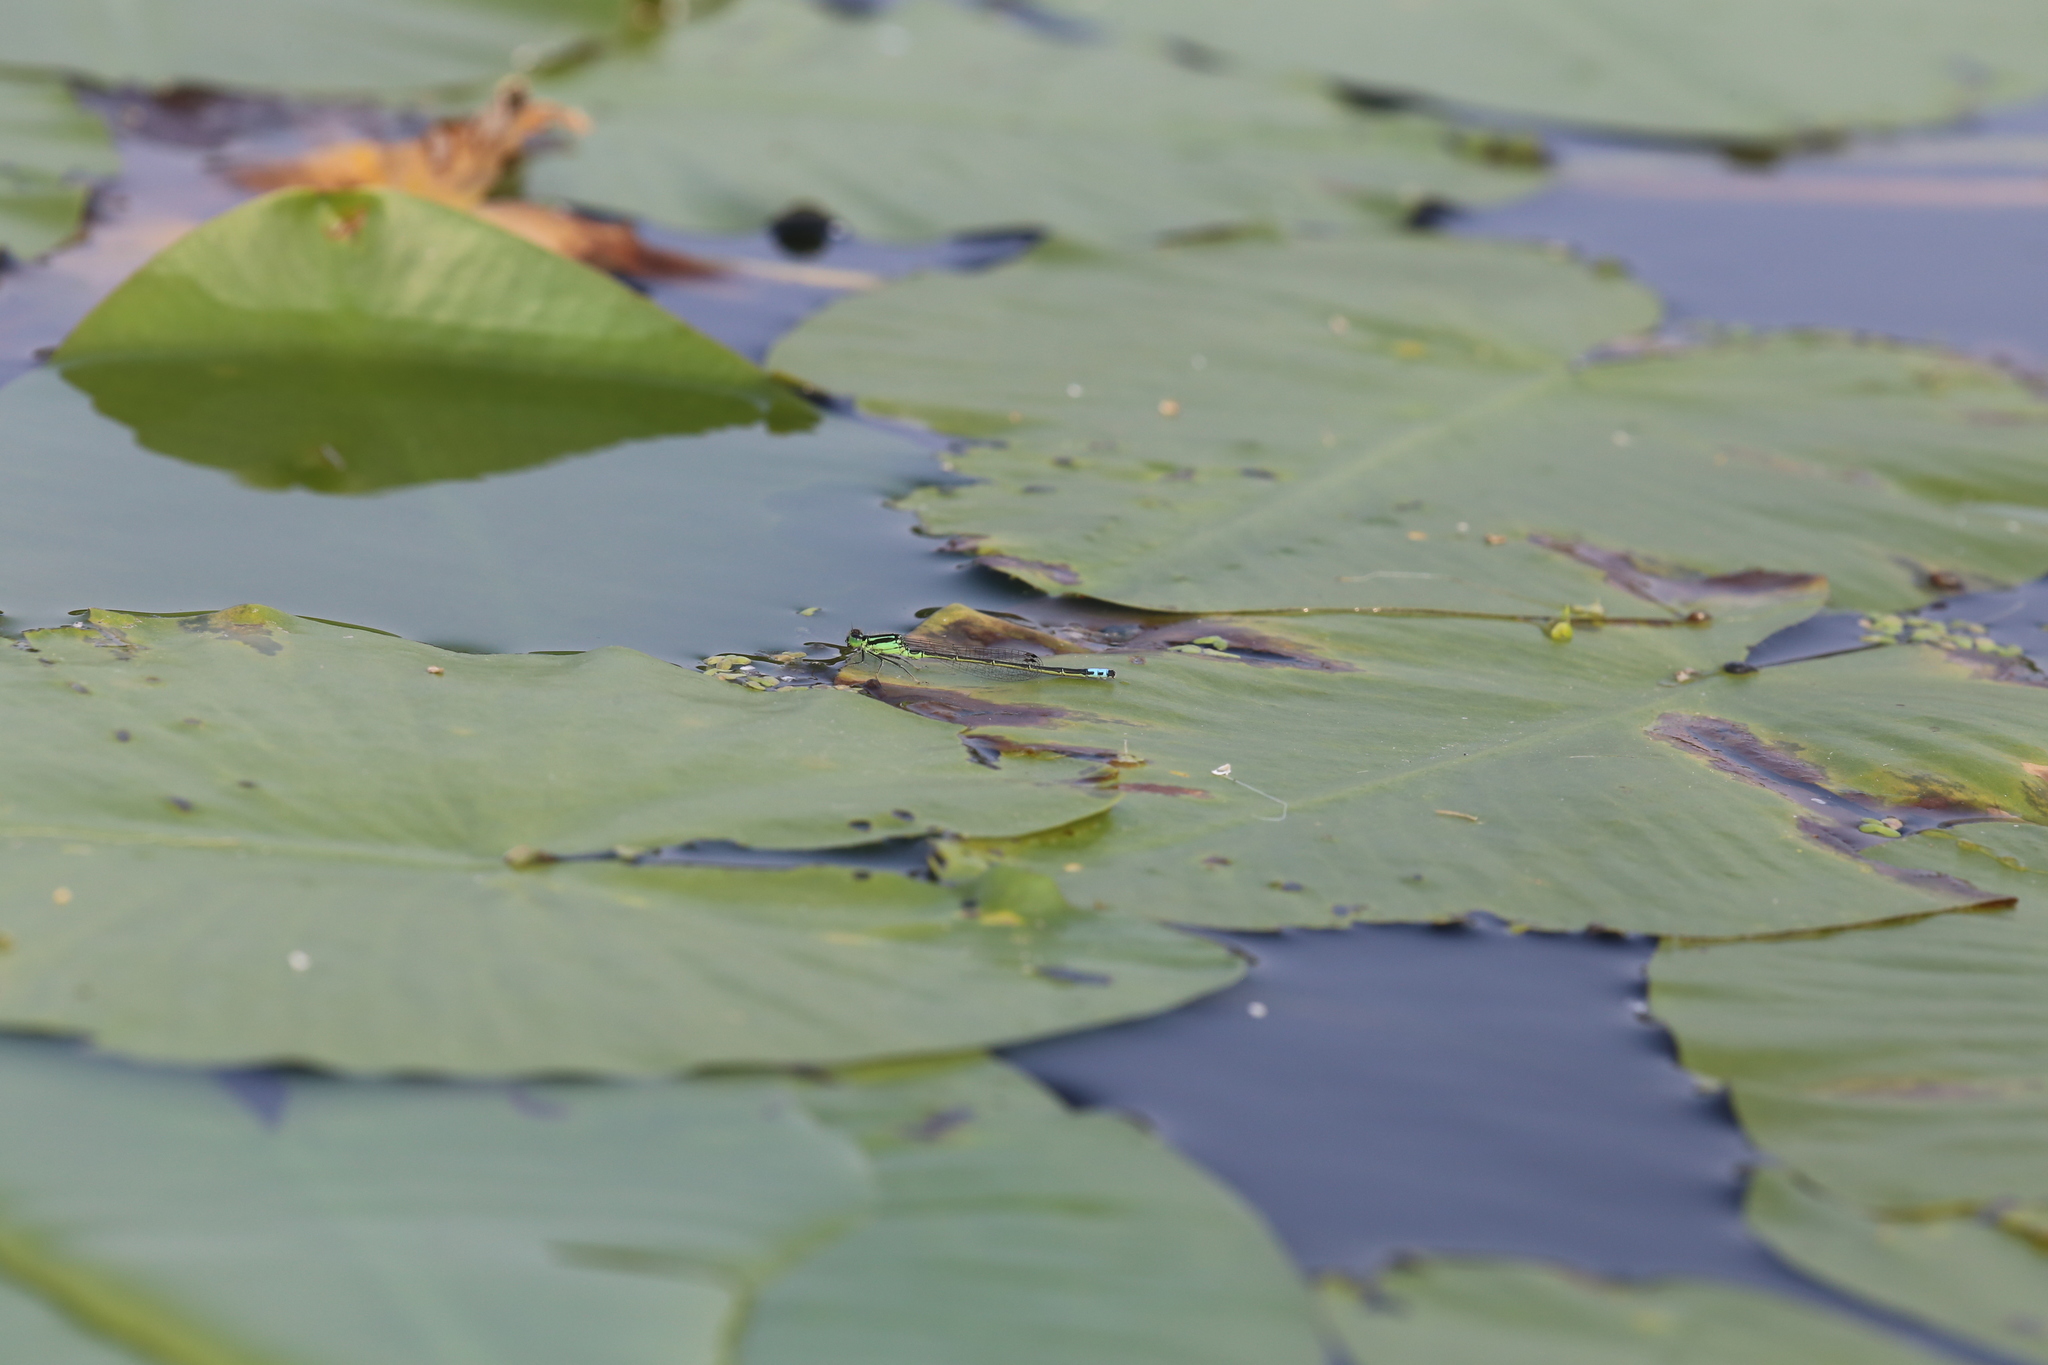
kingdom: Animalia
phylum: Arthropoda
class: Insecta
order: Odonata
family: Coenagrionidae
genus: Ischnura
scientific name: Ischnura verticalis
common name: Eastern forktail
